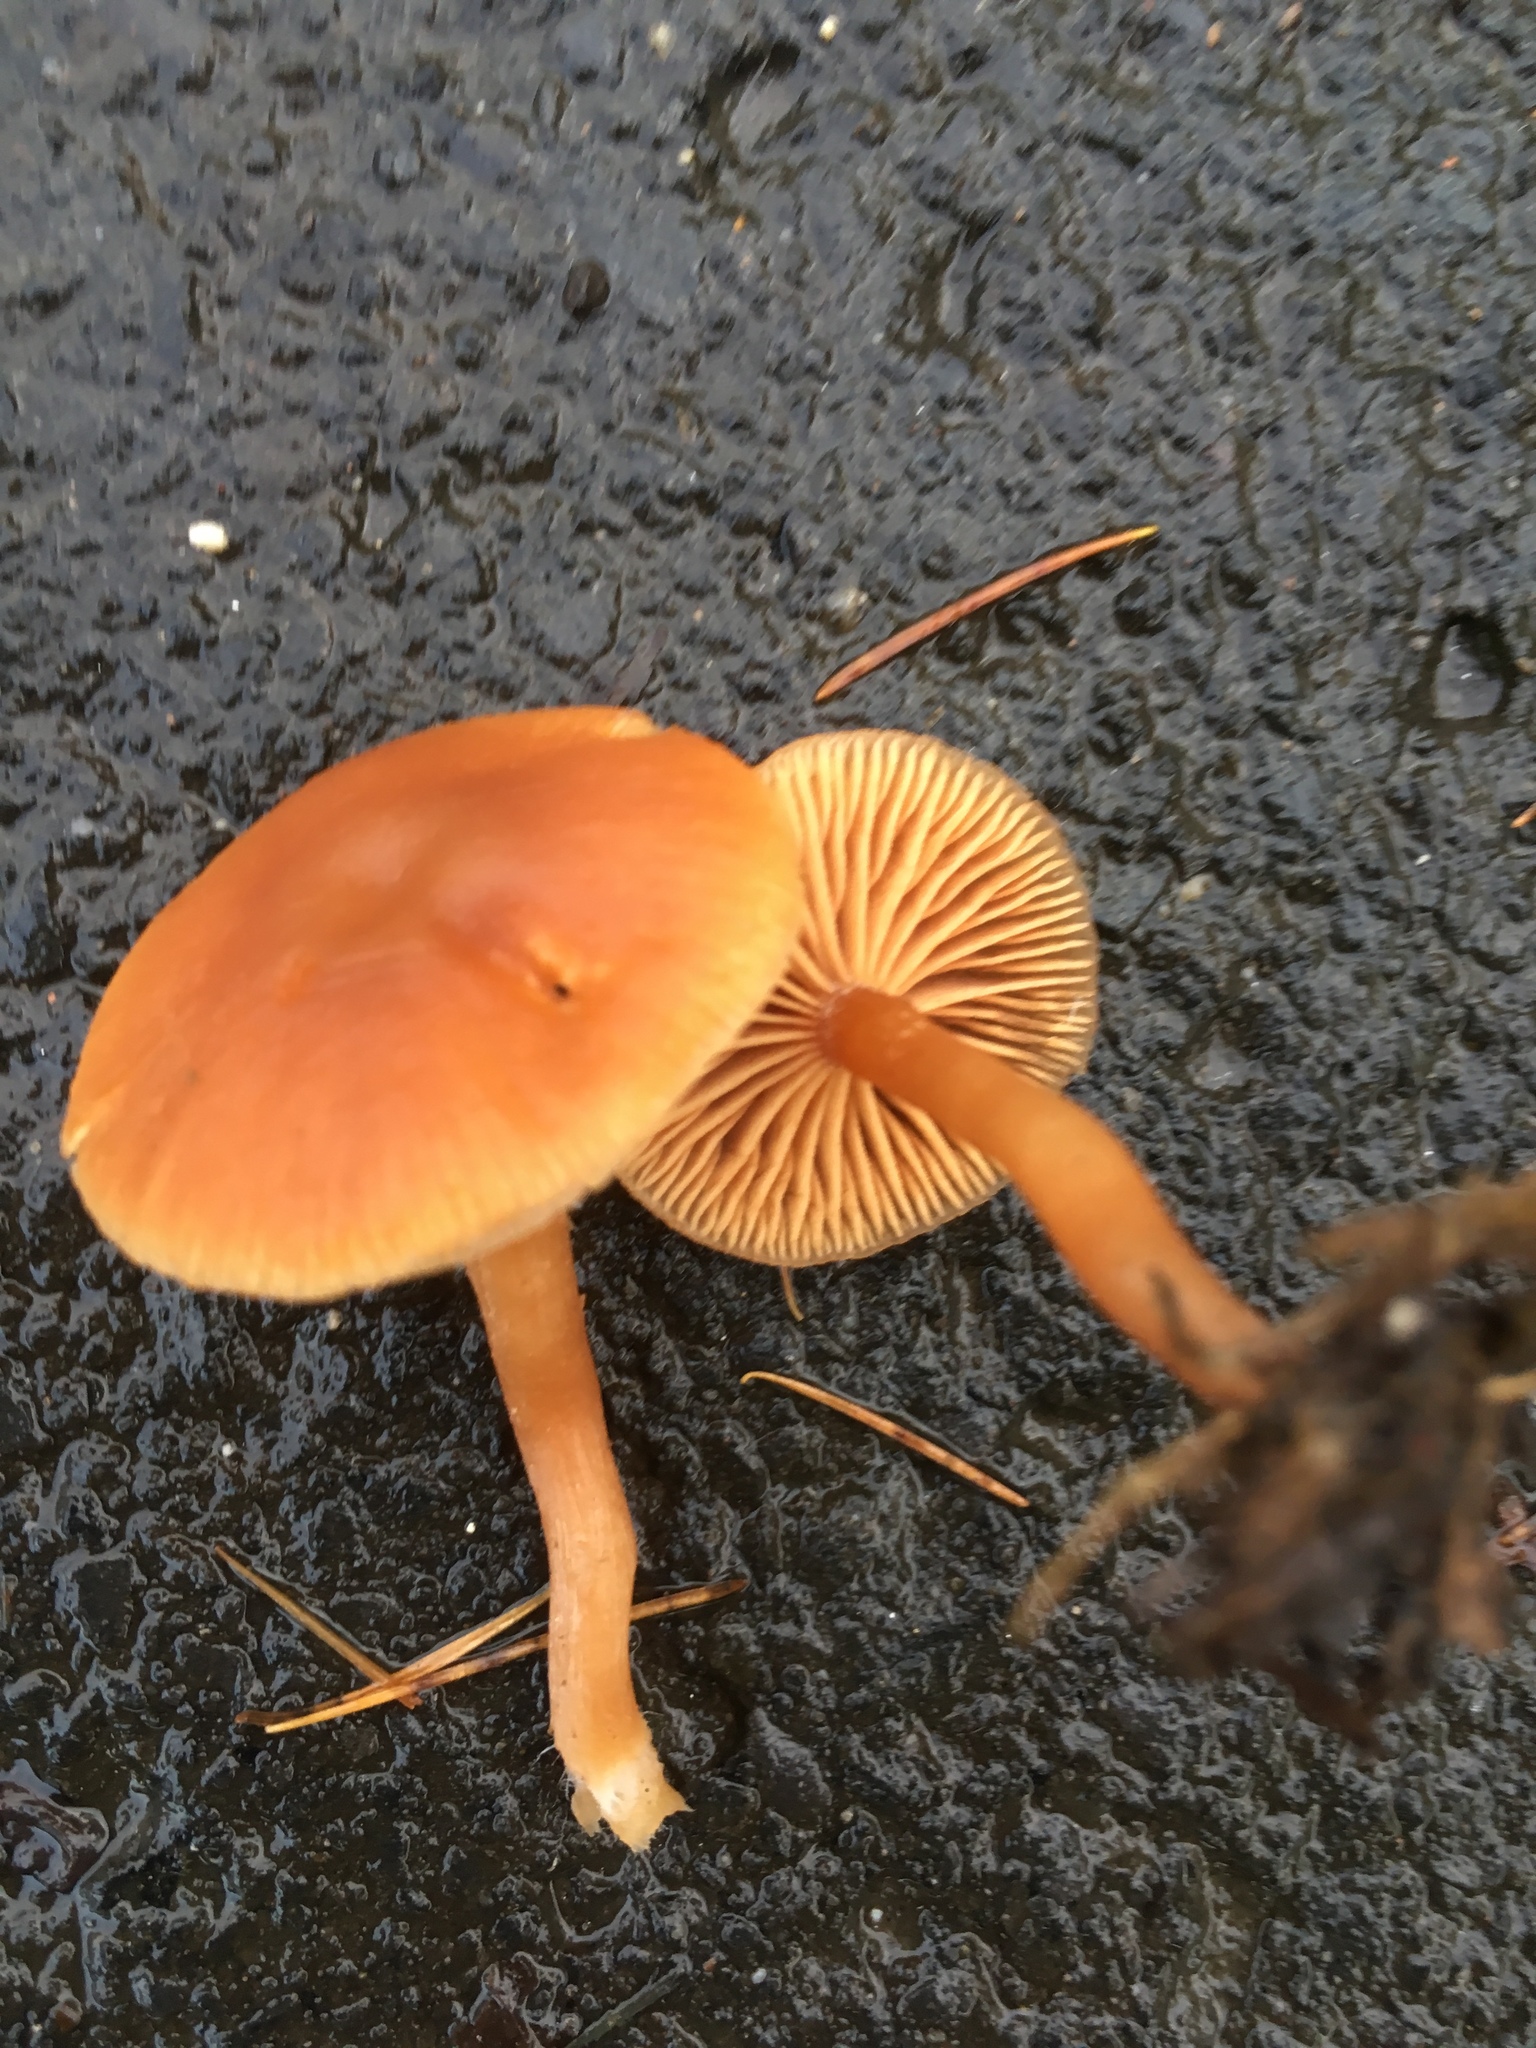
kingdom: Fungi
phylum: Basidiomycota
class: Agaricomycetes
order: Agaricales
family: Tubariaceae
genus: Tubaria
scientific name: Tubaria furfuracea
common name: Scurfy twiglet
